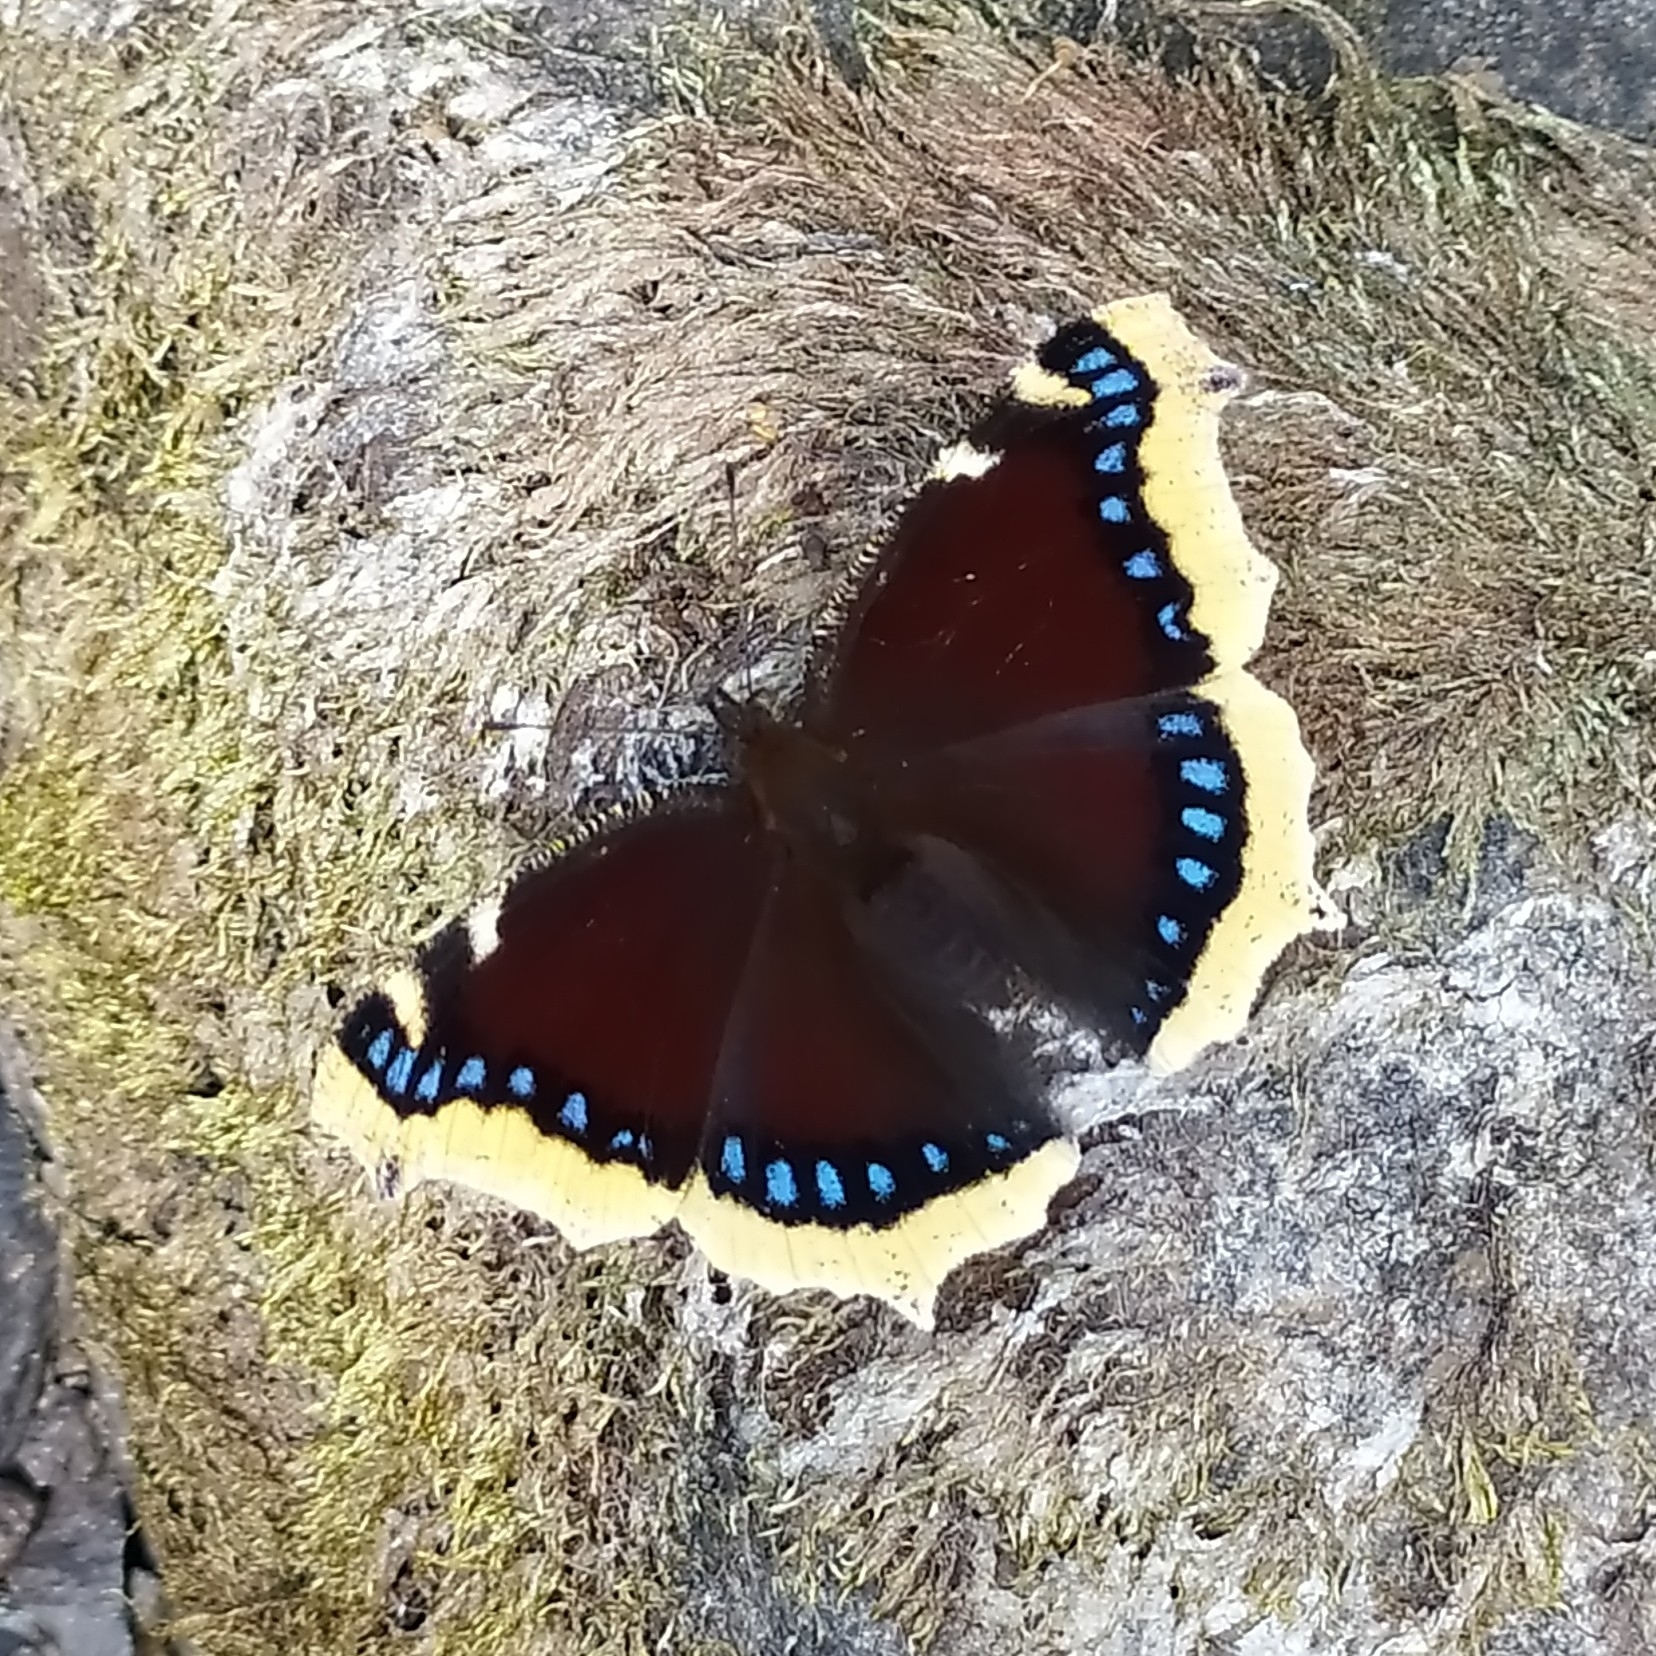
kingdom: Animalia
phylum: Arthropoda
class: Insecta
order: Lepidoptera
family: Nymphalidae
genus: Nymphalis
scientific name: Nymphalis antiopa
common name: Camberwell beauty
